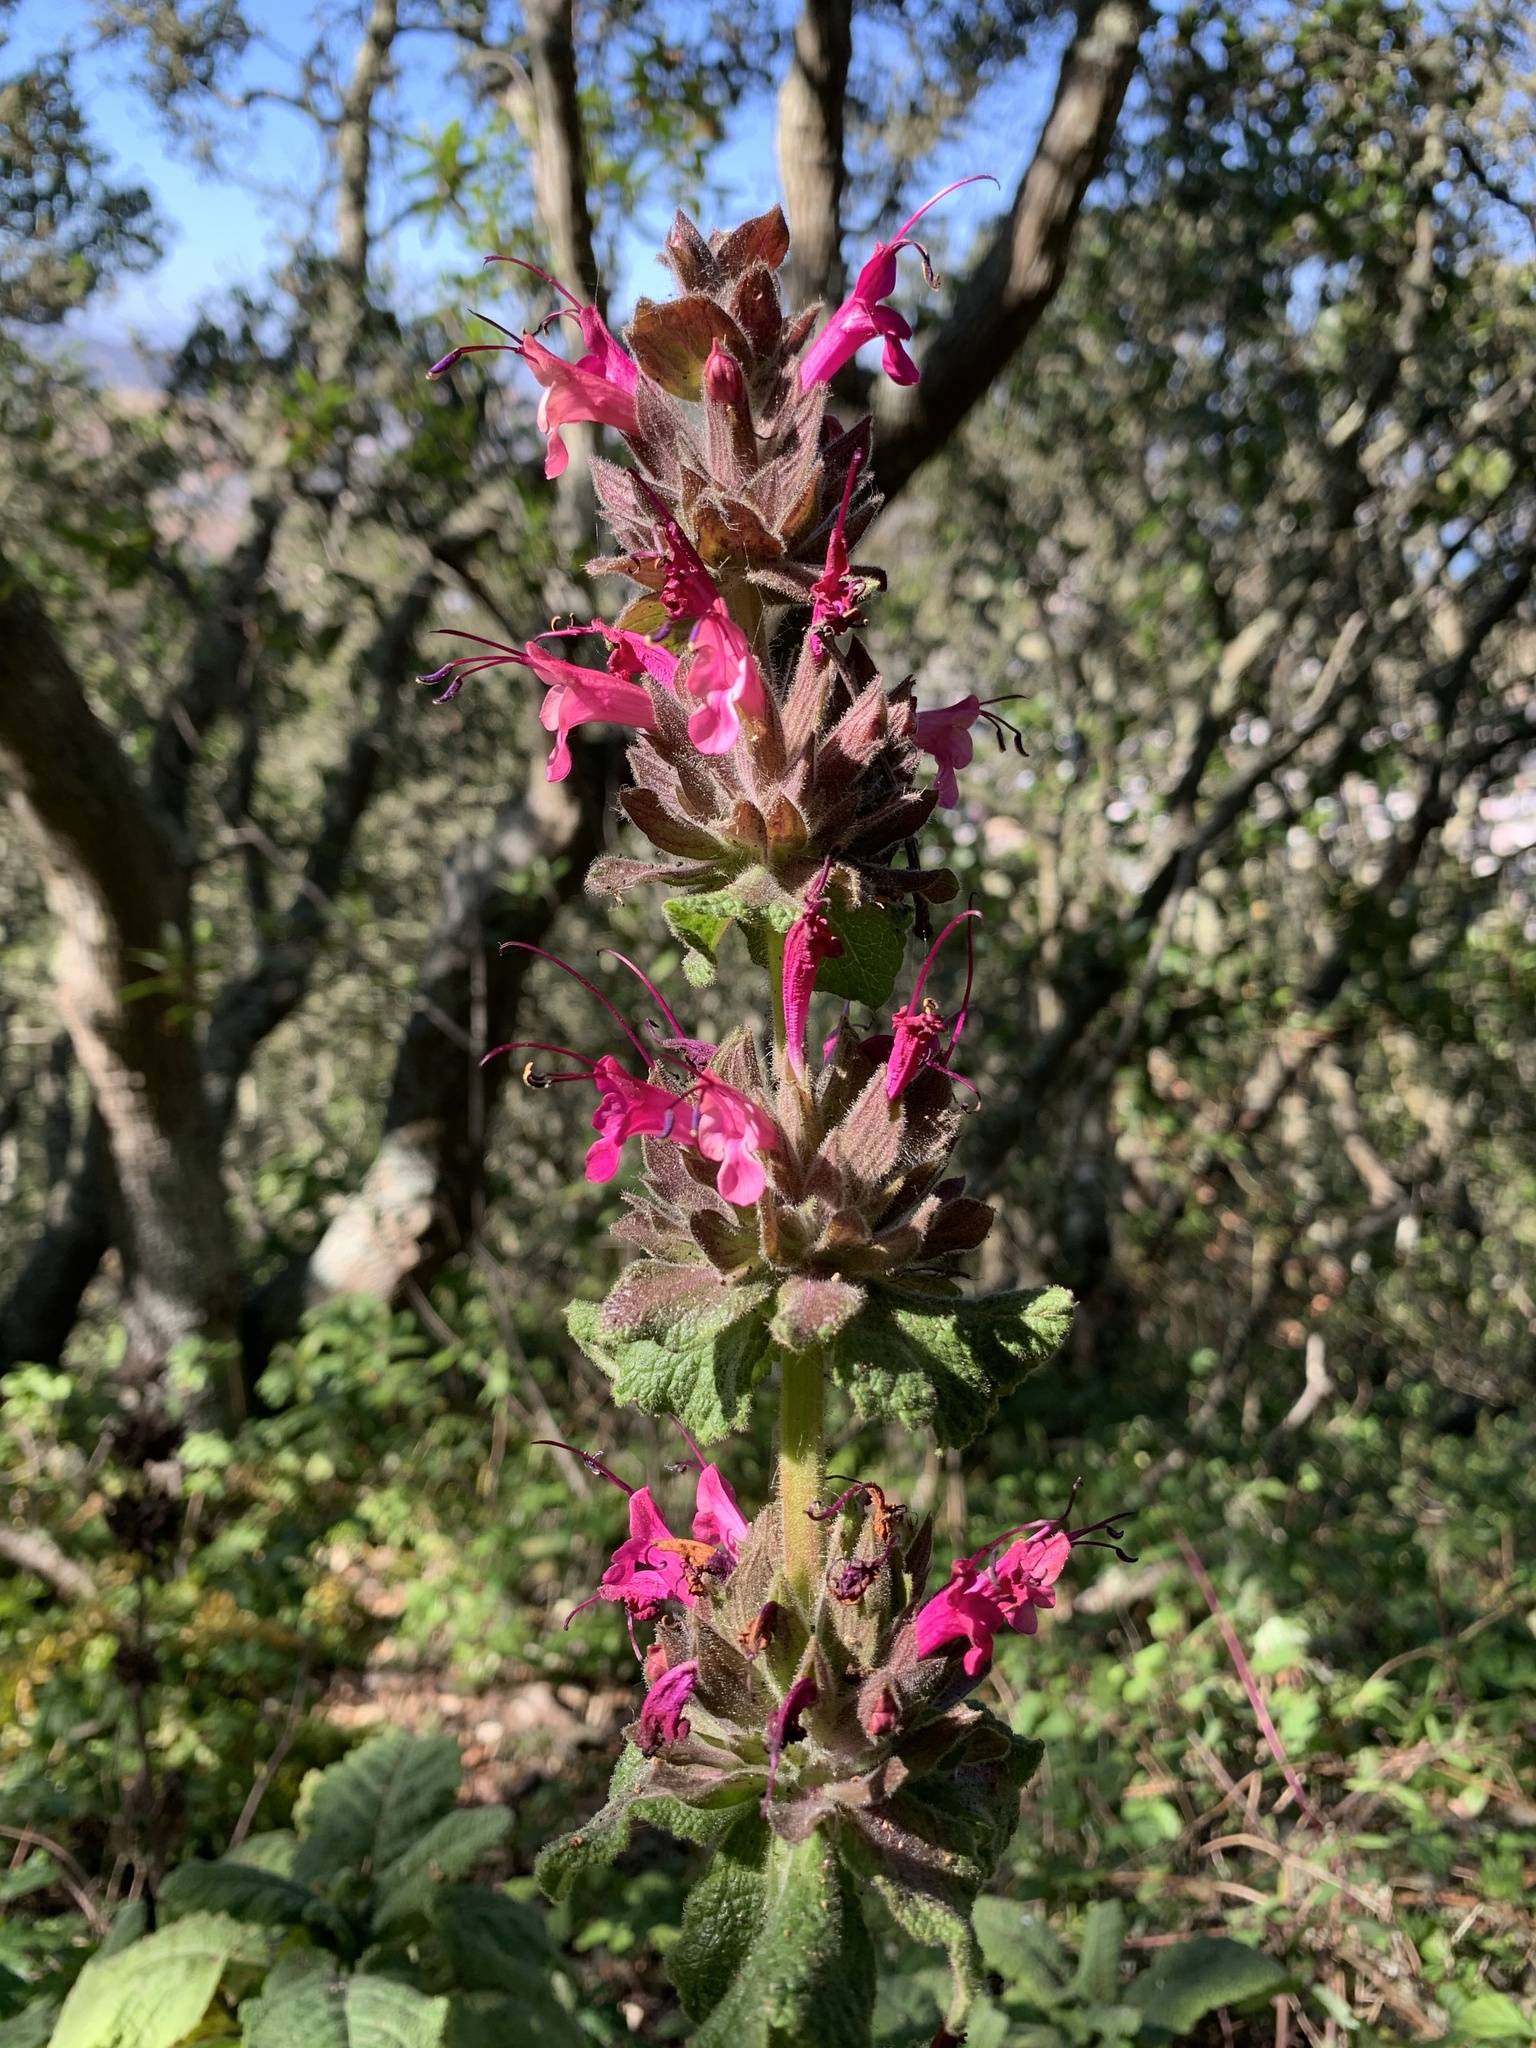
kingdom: Plantae
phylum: Tracheophyta
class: Magnoliopsida
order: Lamiales
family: Lamiaceae
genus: Salvia
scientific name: Salvia spathacea
